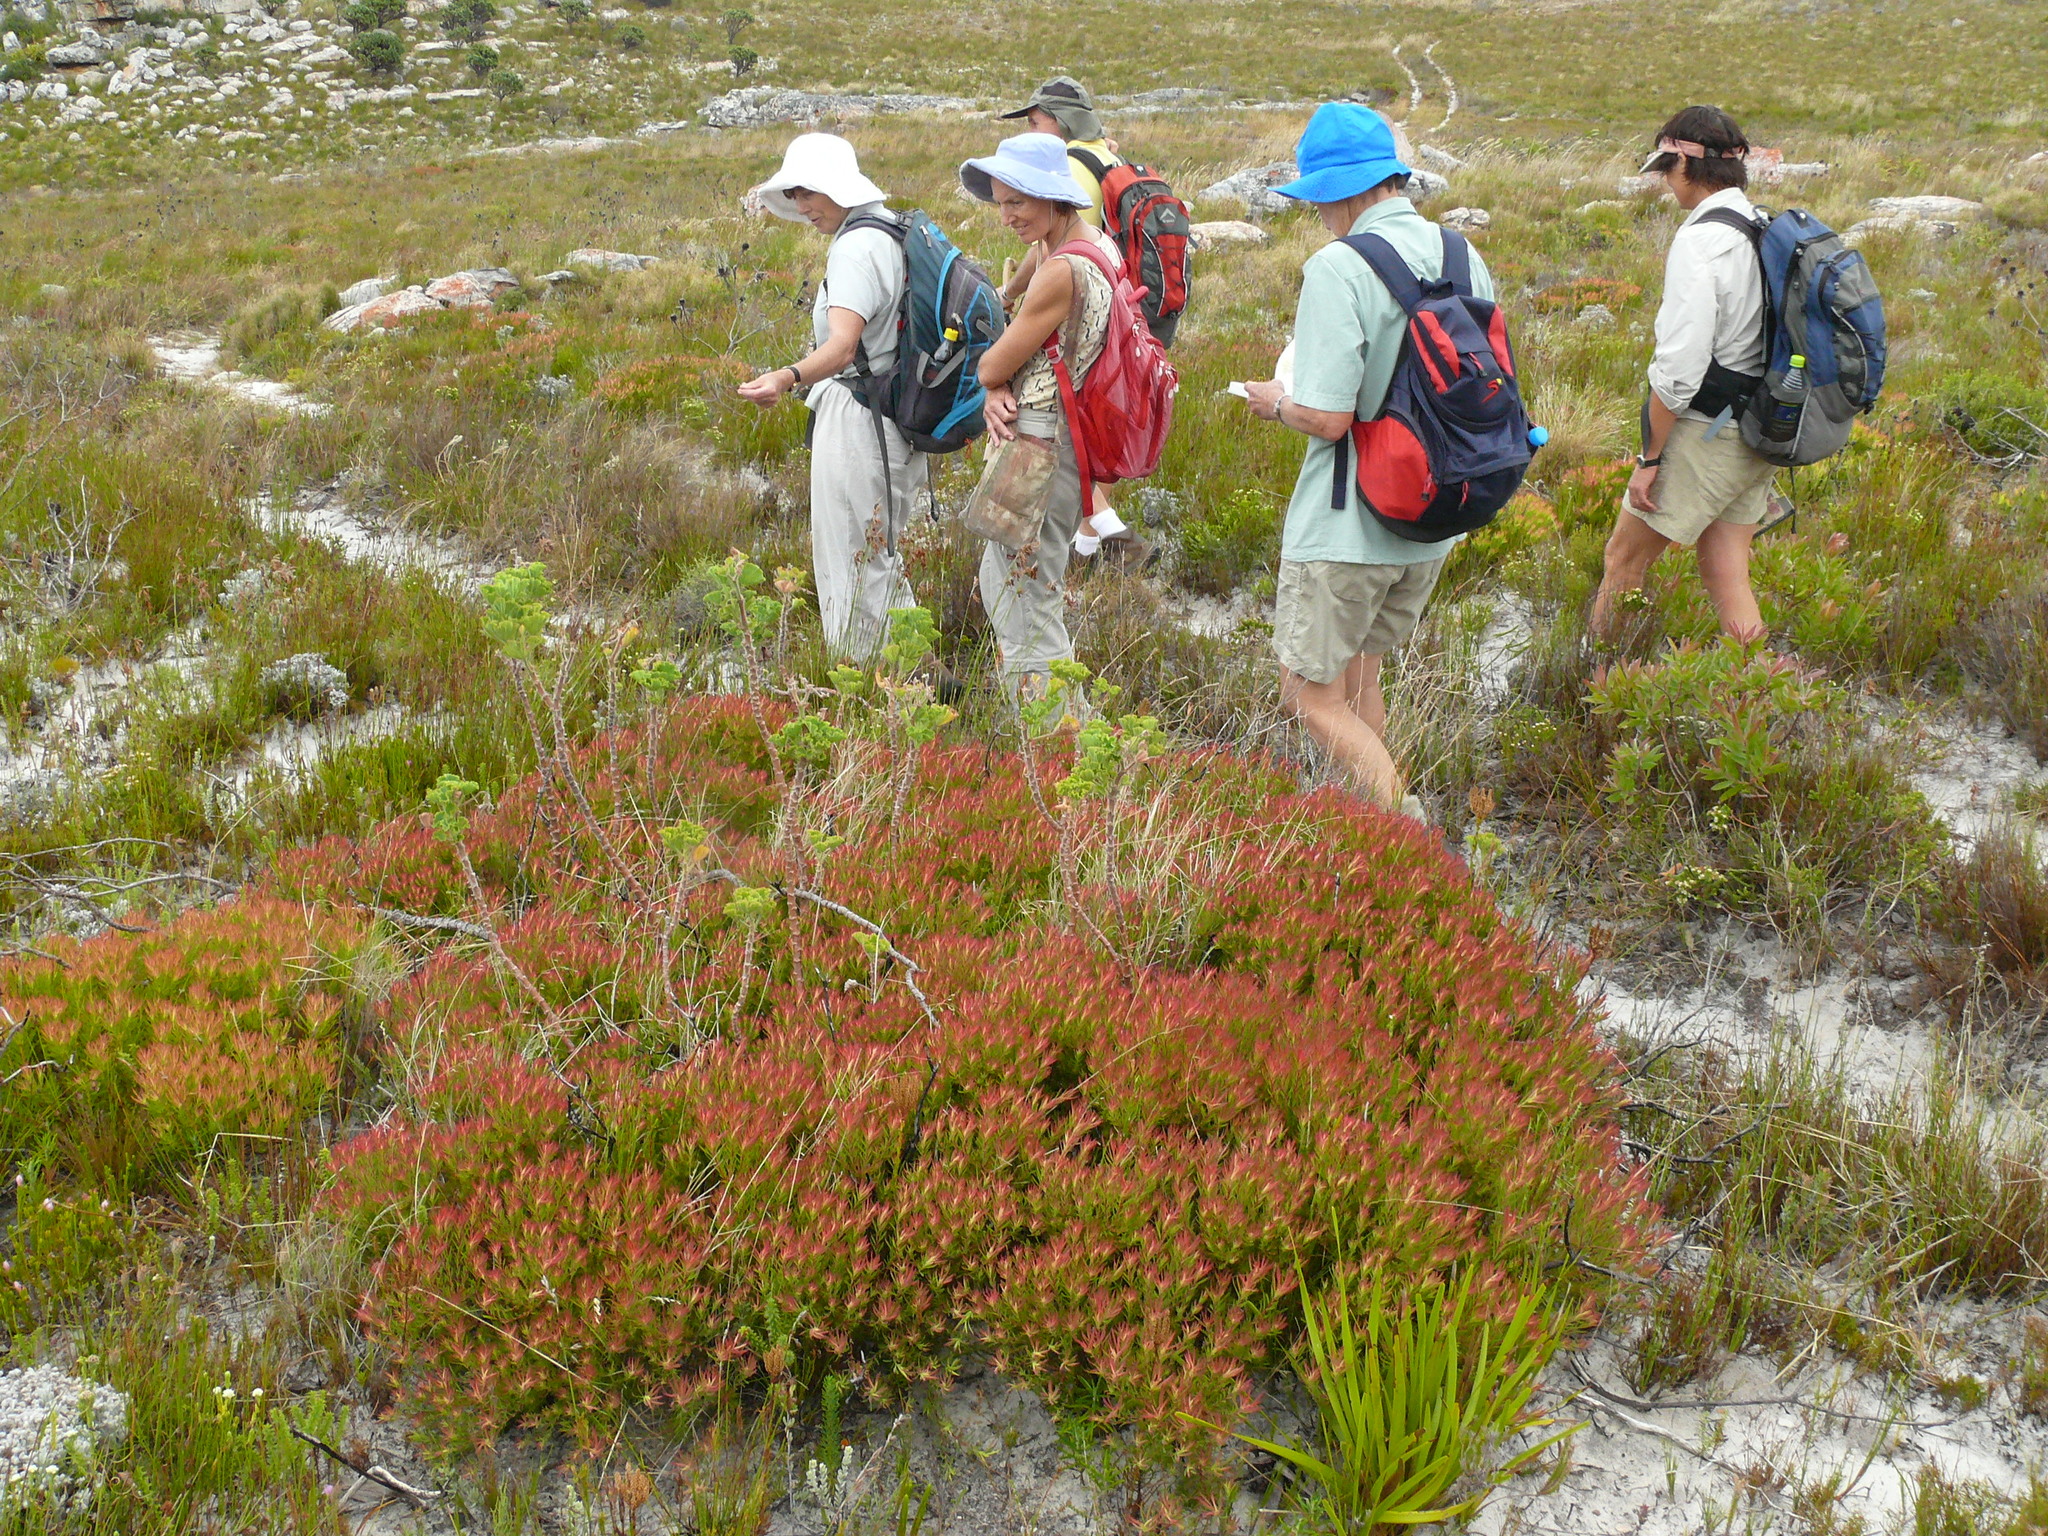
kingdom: Plantae
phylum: Tracheophyta
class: Magnoliopsida
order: Proteales
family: Proteaceae
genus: Leucadendron
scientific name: Leucadendron salignum
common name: Common sunshine conebush
